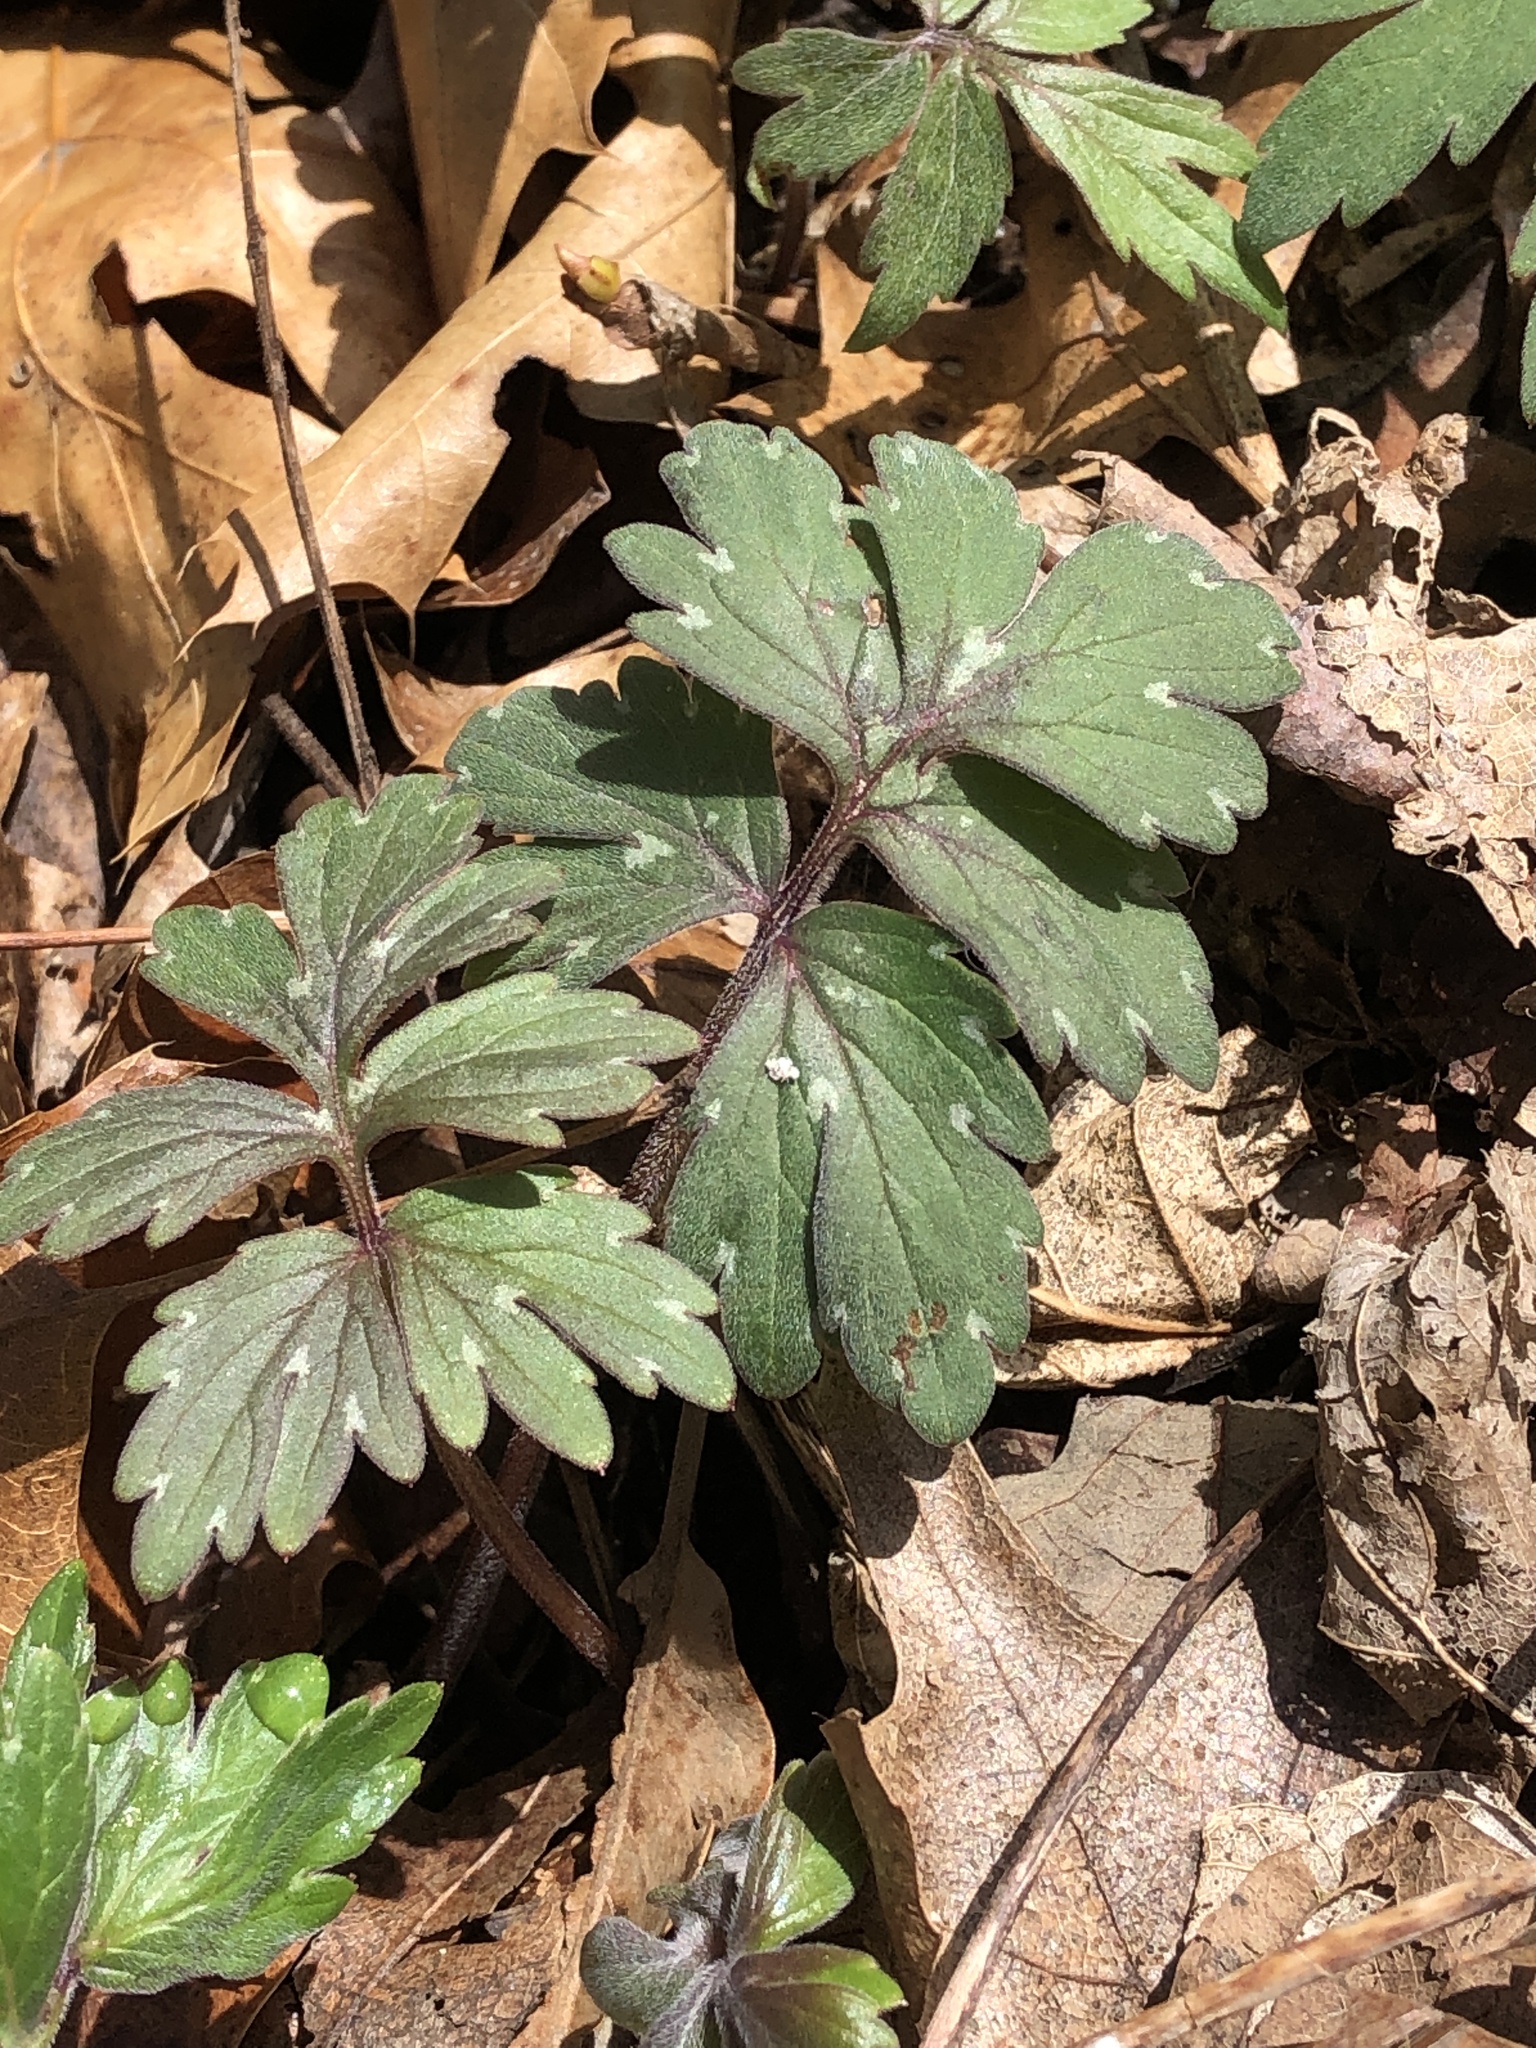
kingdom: Plantae
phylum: Tracheophyta
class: Magnoliopsida
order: Boraginales
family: Hydrophyllaceae
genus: Hydrophyllum
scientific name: Hydrophyllum virginianum
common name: Virginia waterleaf
